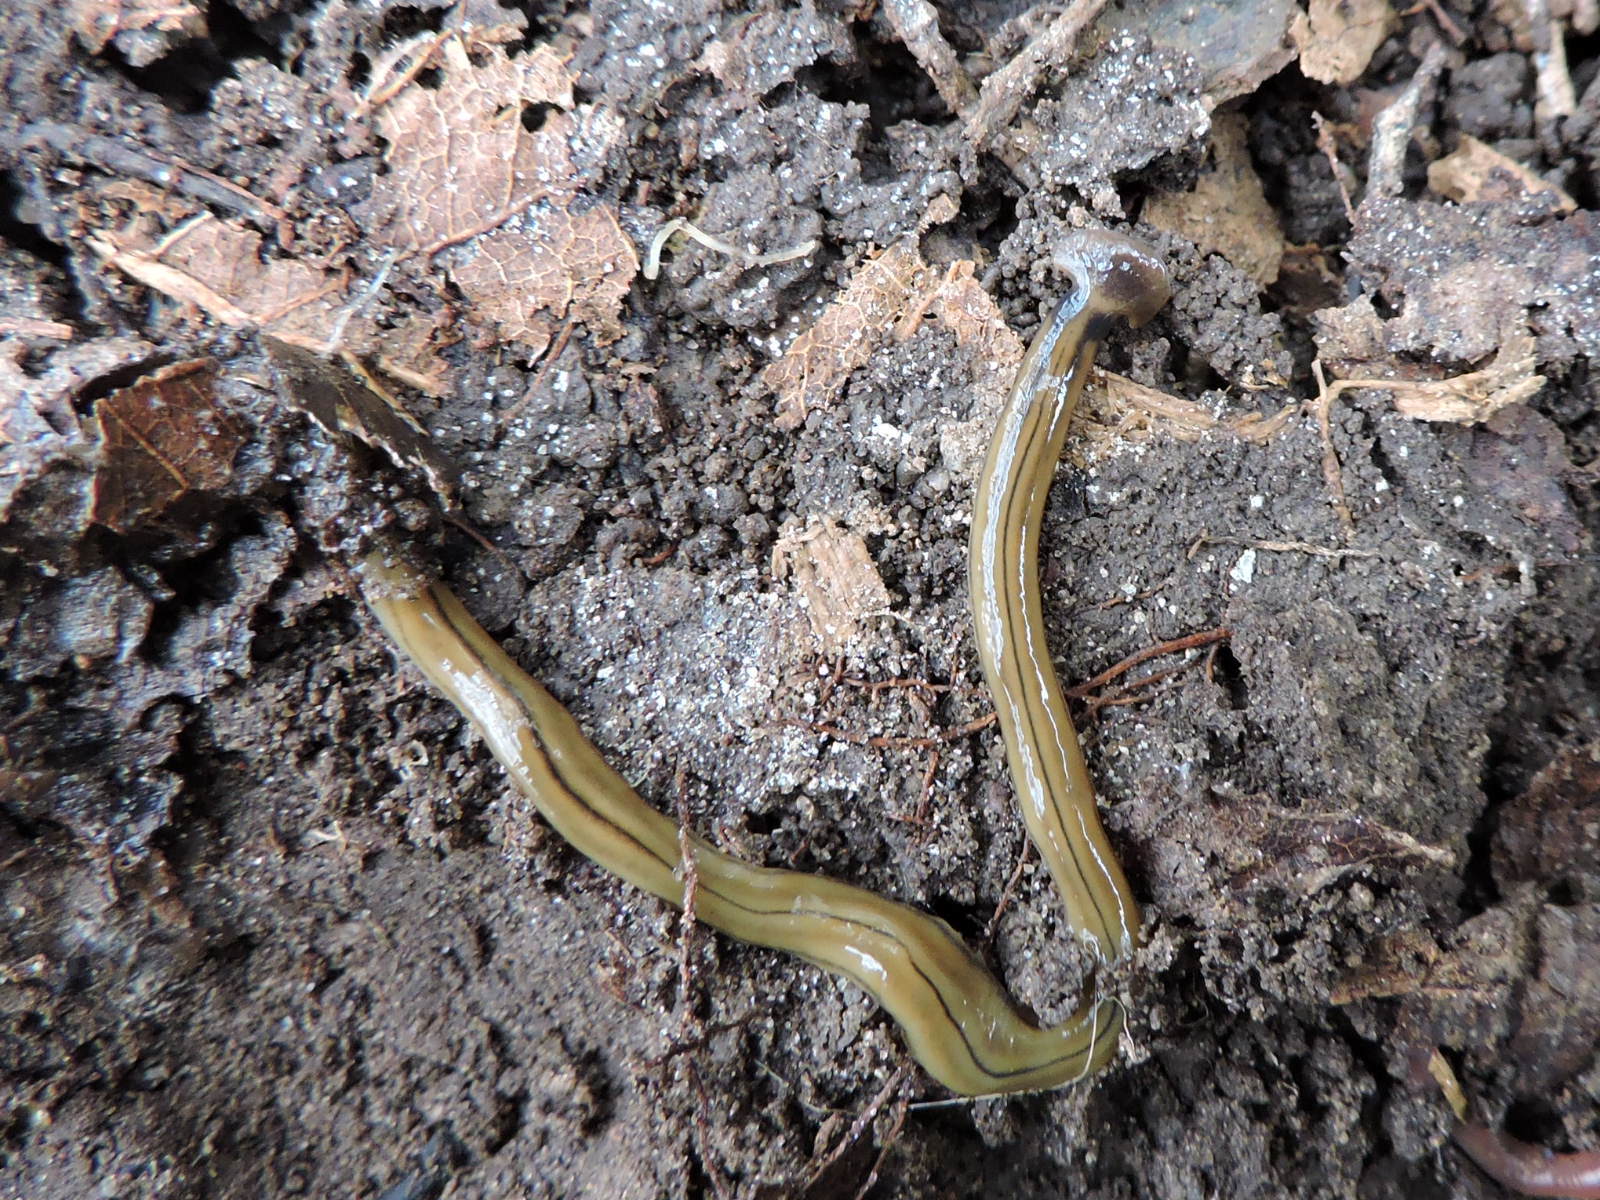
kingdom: Animalia
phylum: Platyhelminthes
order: Tricladida
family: Geoplanidae
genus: Bipalium
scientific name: Bipalium kewense
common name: Hammerhead flatworm
